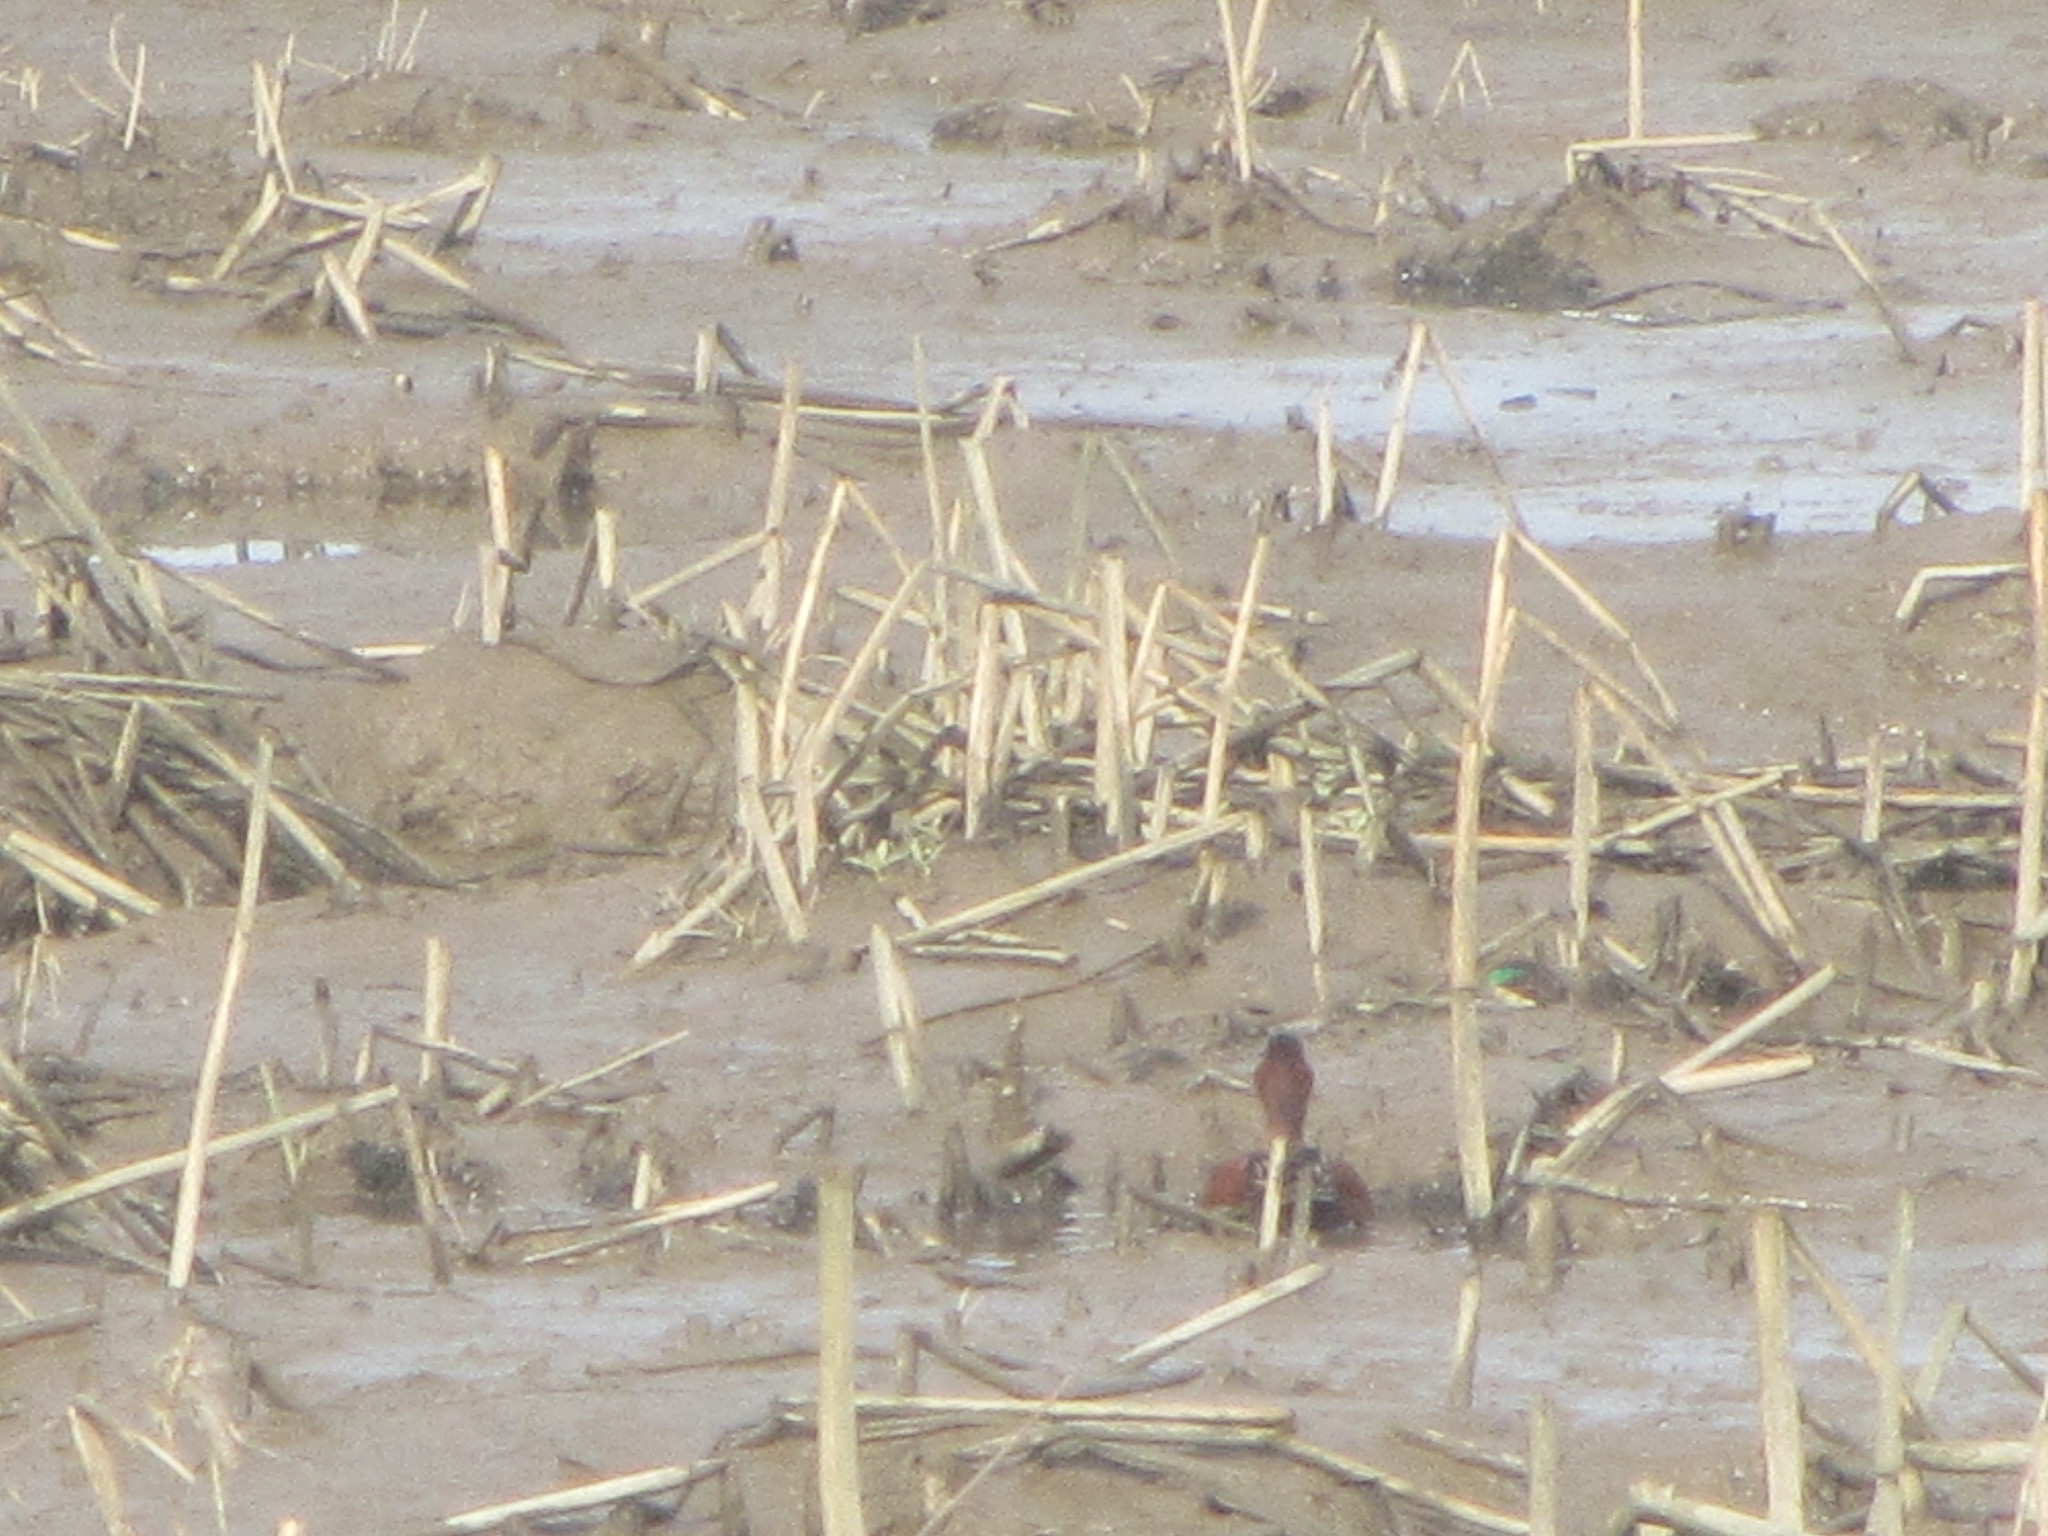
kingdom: Animalia
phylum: Chordata
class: Aves
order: Anseriformes
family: Anatidae
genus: Spatula
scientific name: Spatula cyanoptera
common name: Cinnamon teal
